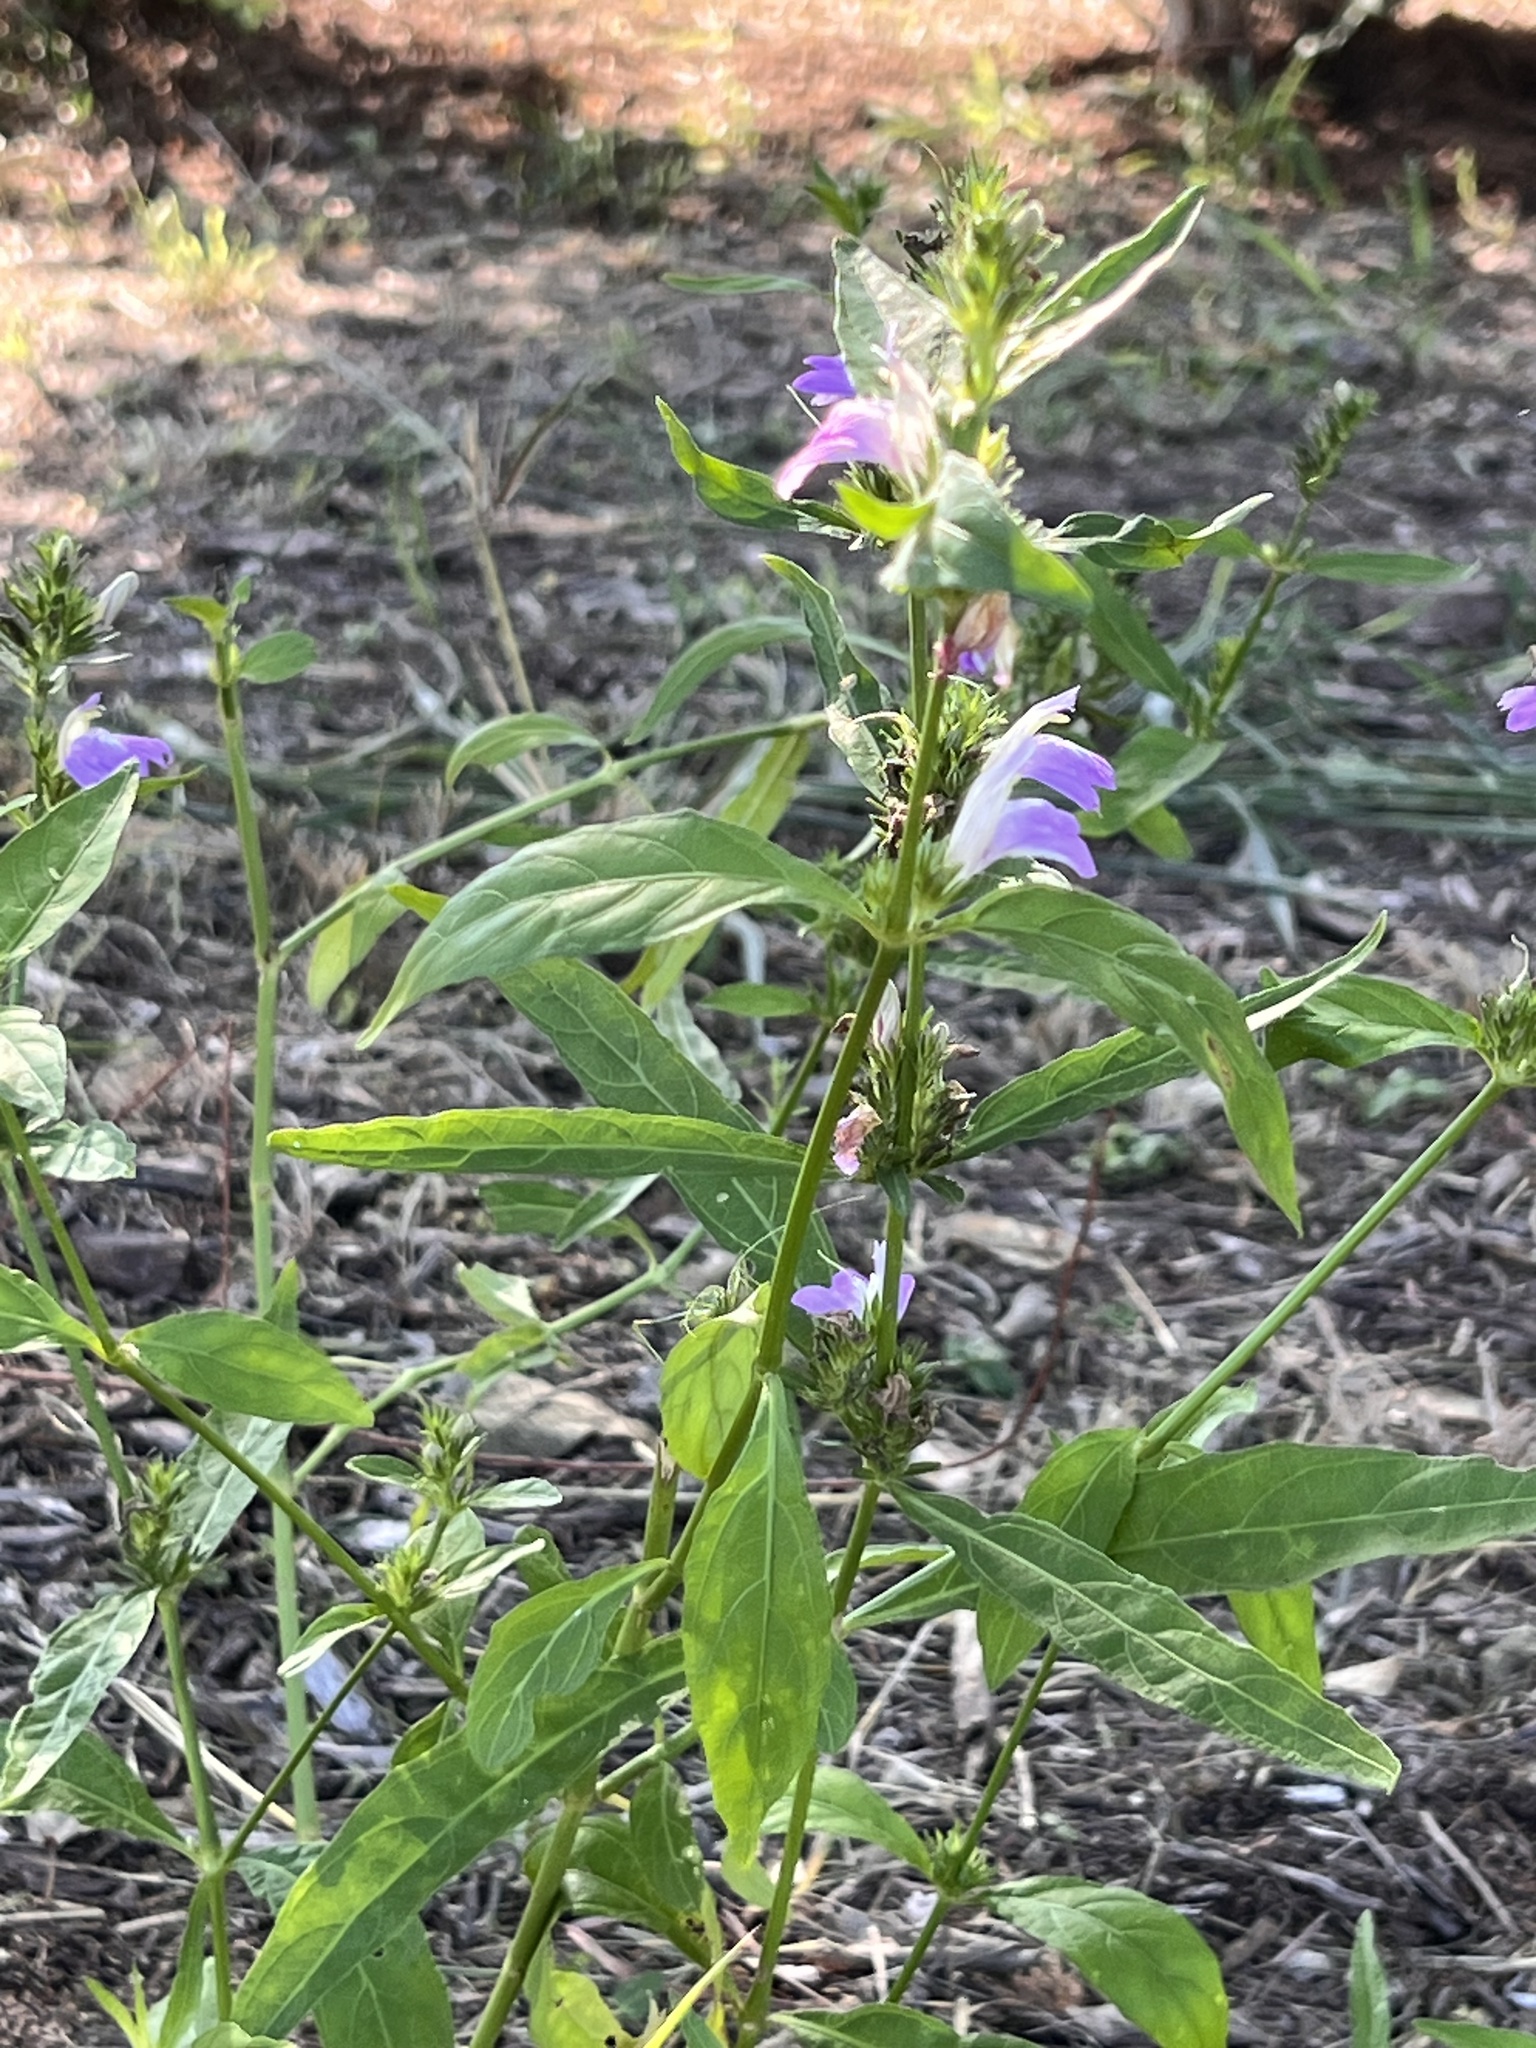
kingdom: Plantae
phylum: Tracheophyta
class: Magnoliopsida
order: Lamiales
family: Acanthaceae
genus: Justicia
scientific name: Justicia runyonii
